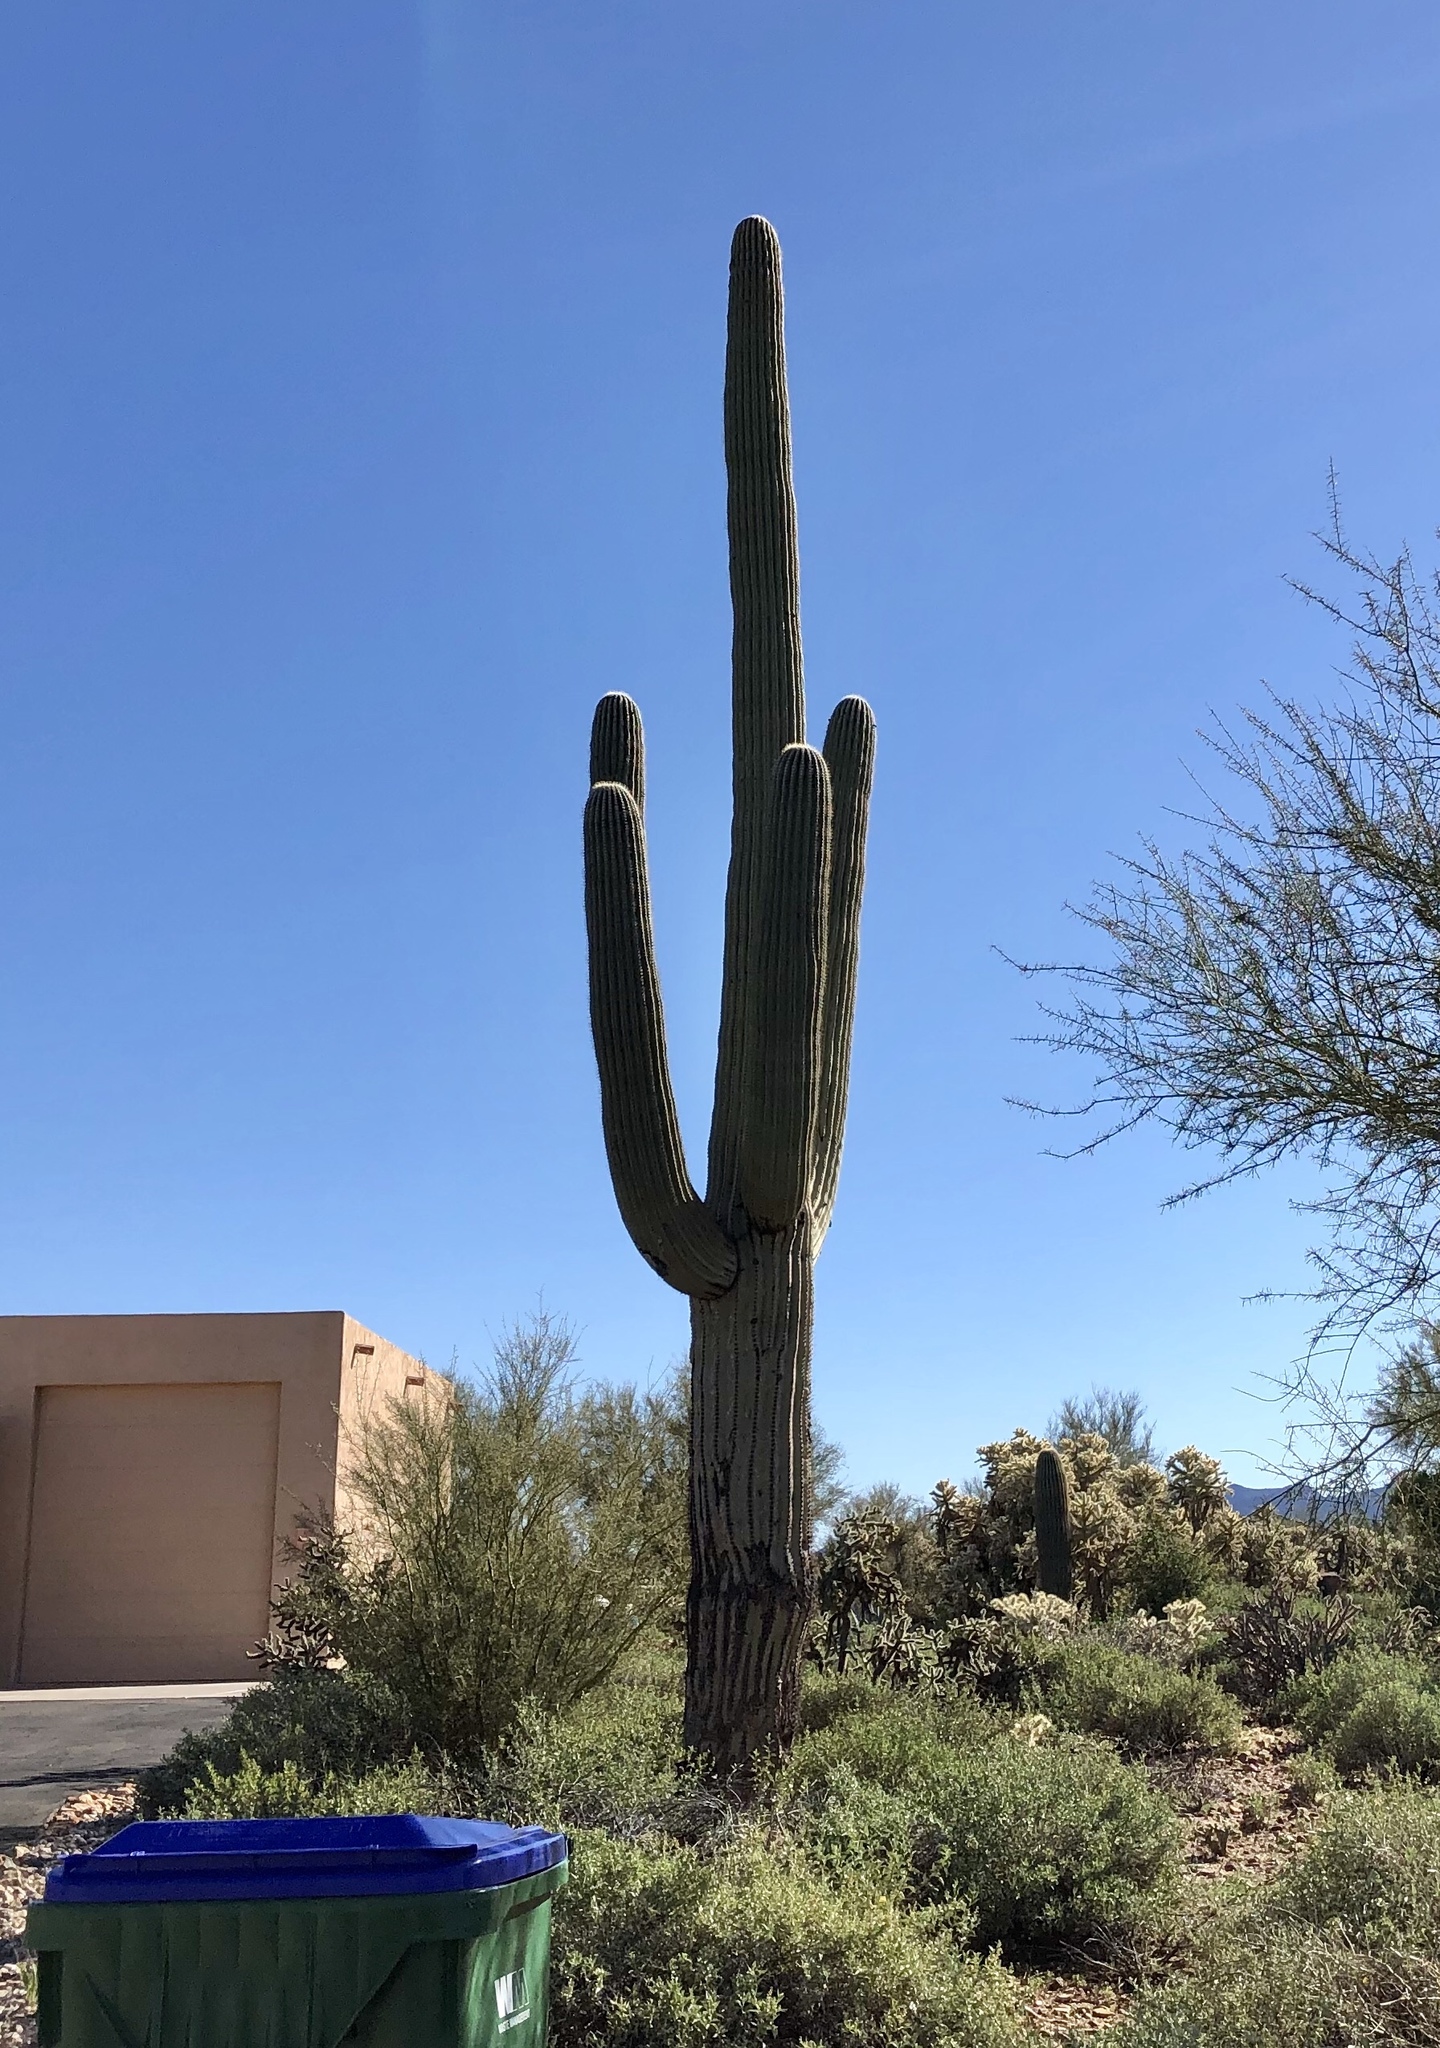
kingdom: Plantae
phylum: Tracheophyta
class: Magnoliopsida
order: Caryophyllales
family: Cactaceae
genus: Carnegiea
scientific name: Carnegiea gigantea
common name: Saguaro
